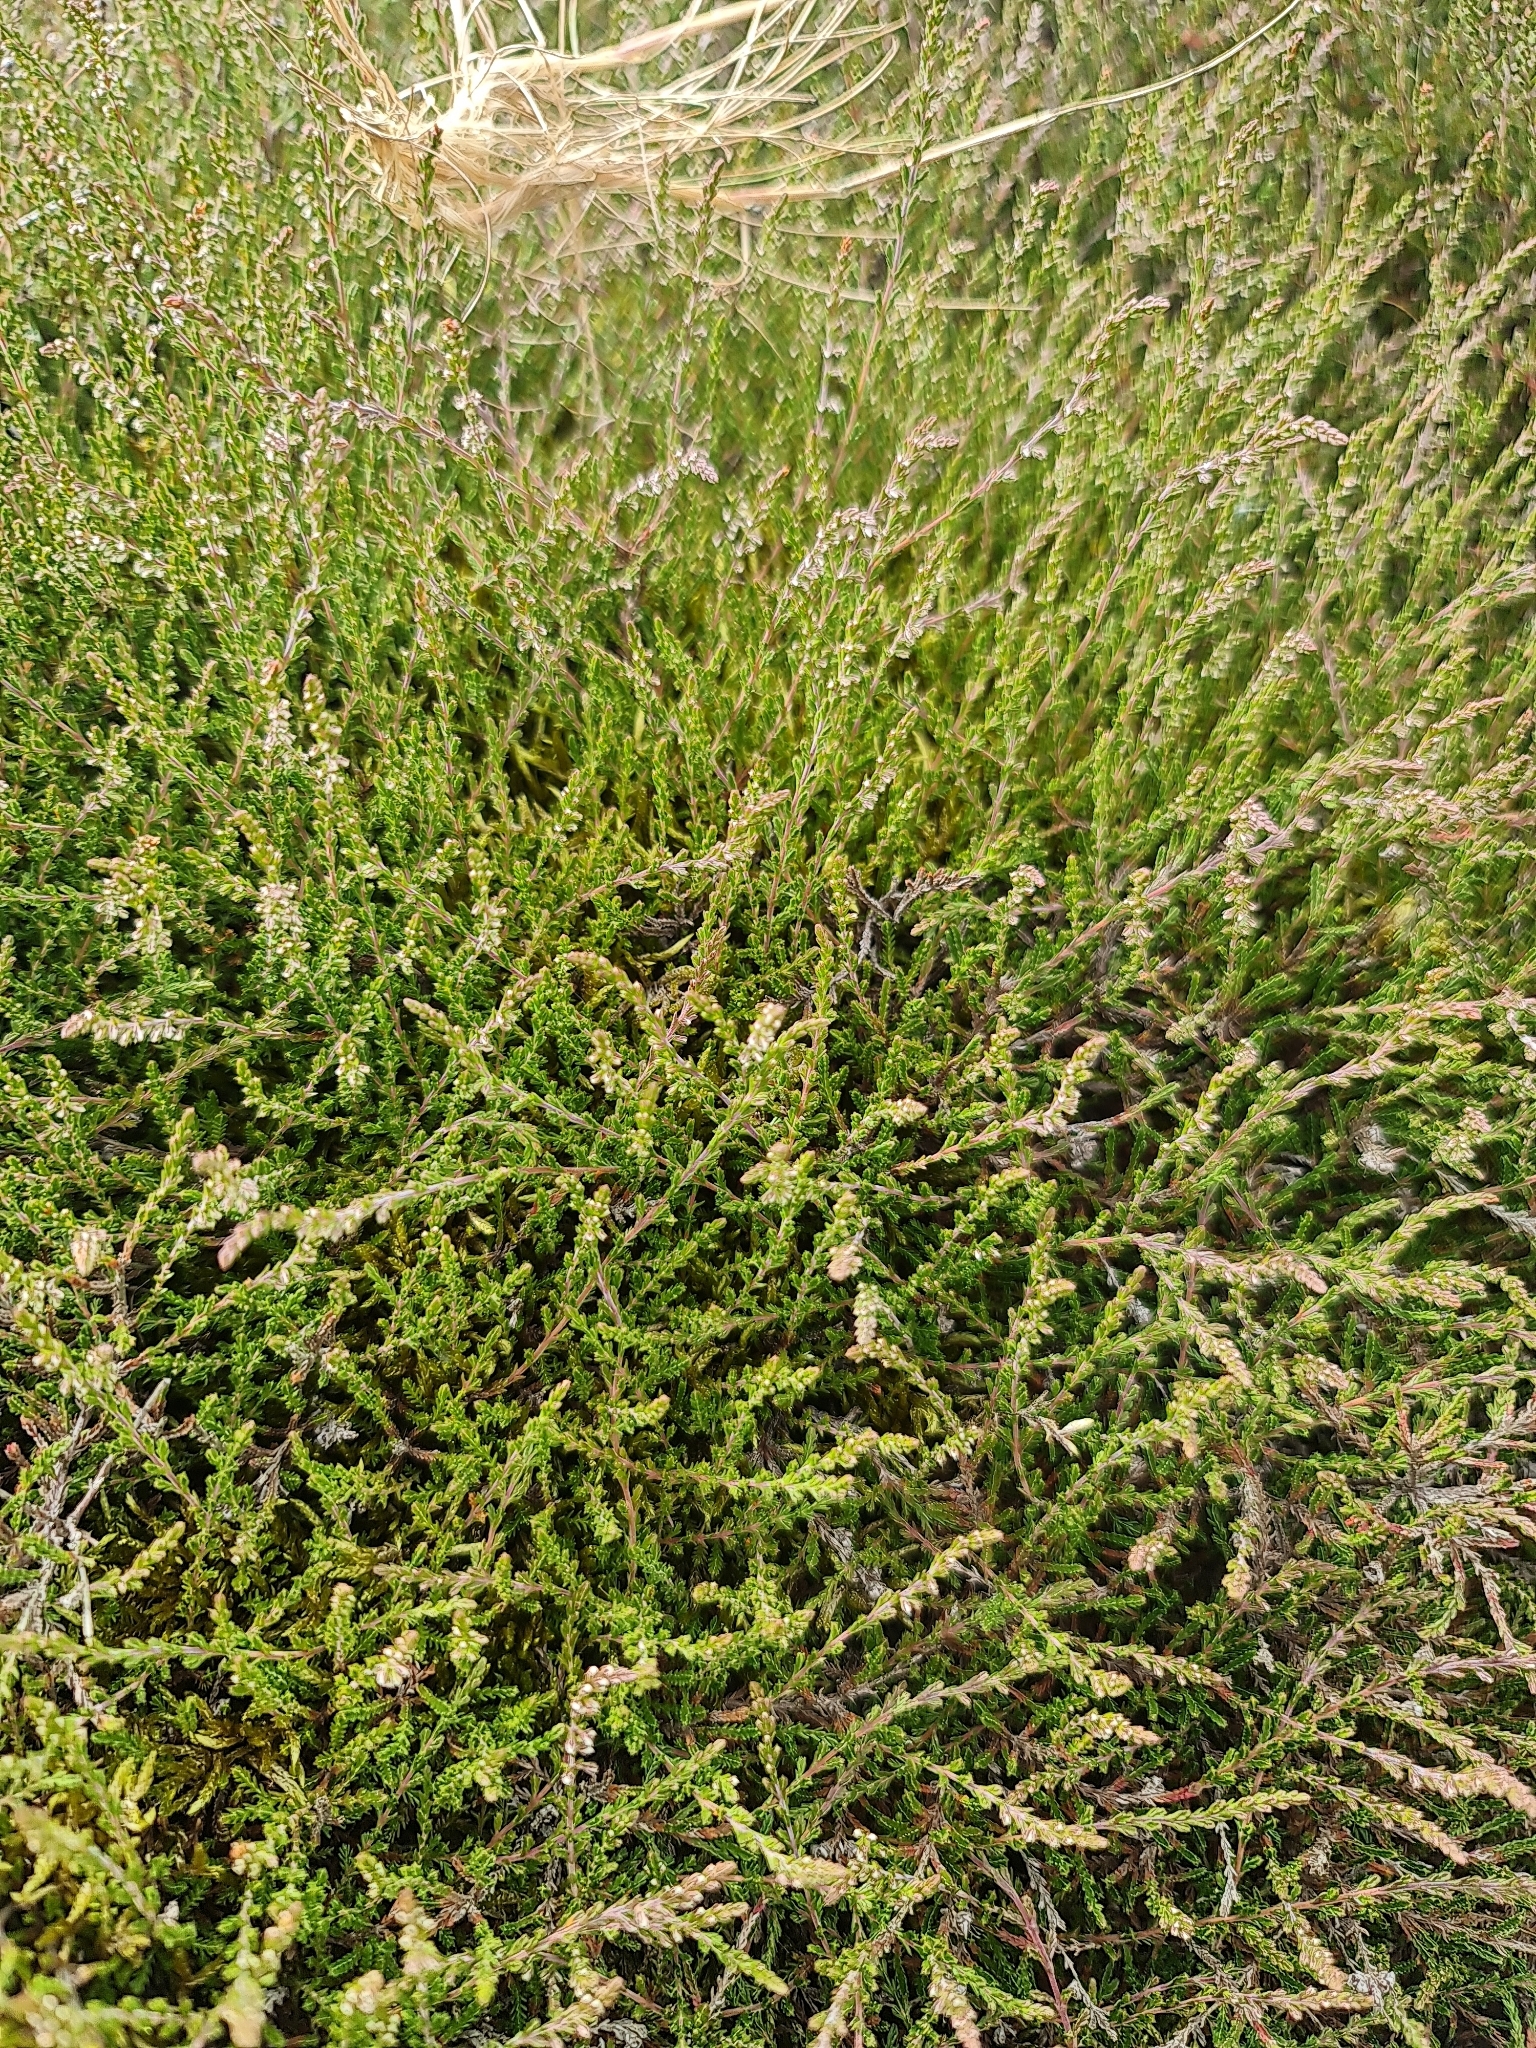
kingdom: Plantae
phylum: Tracheophyta
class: Magnoliopsida
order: Ericales
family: Ericaceae
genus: Calluna
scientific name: Calluna vulgaris
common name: Heather
